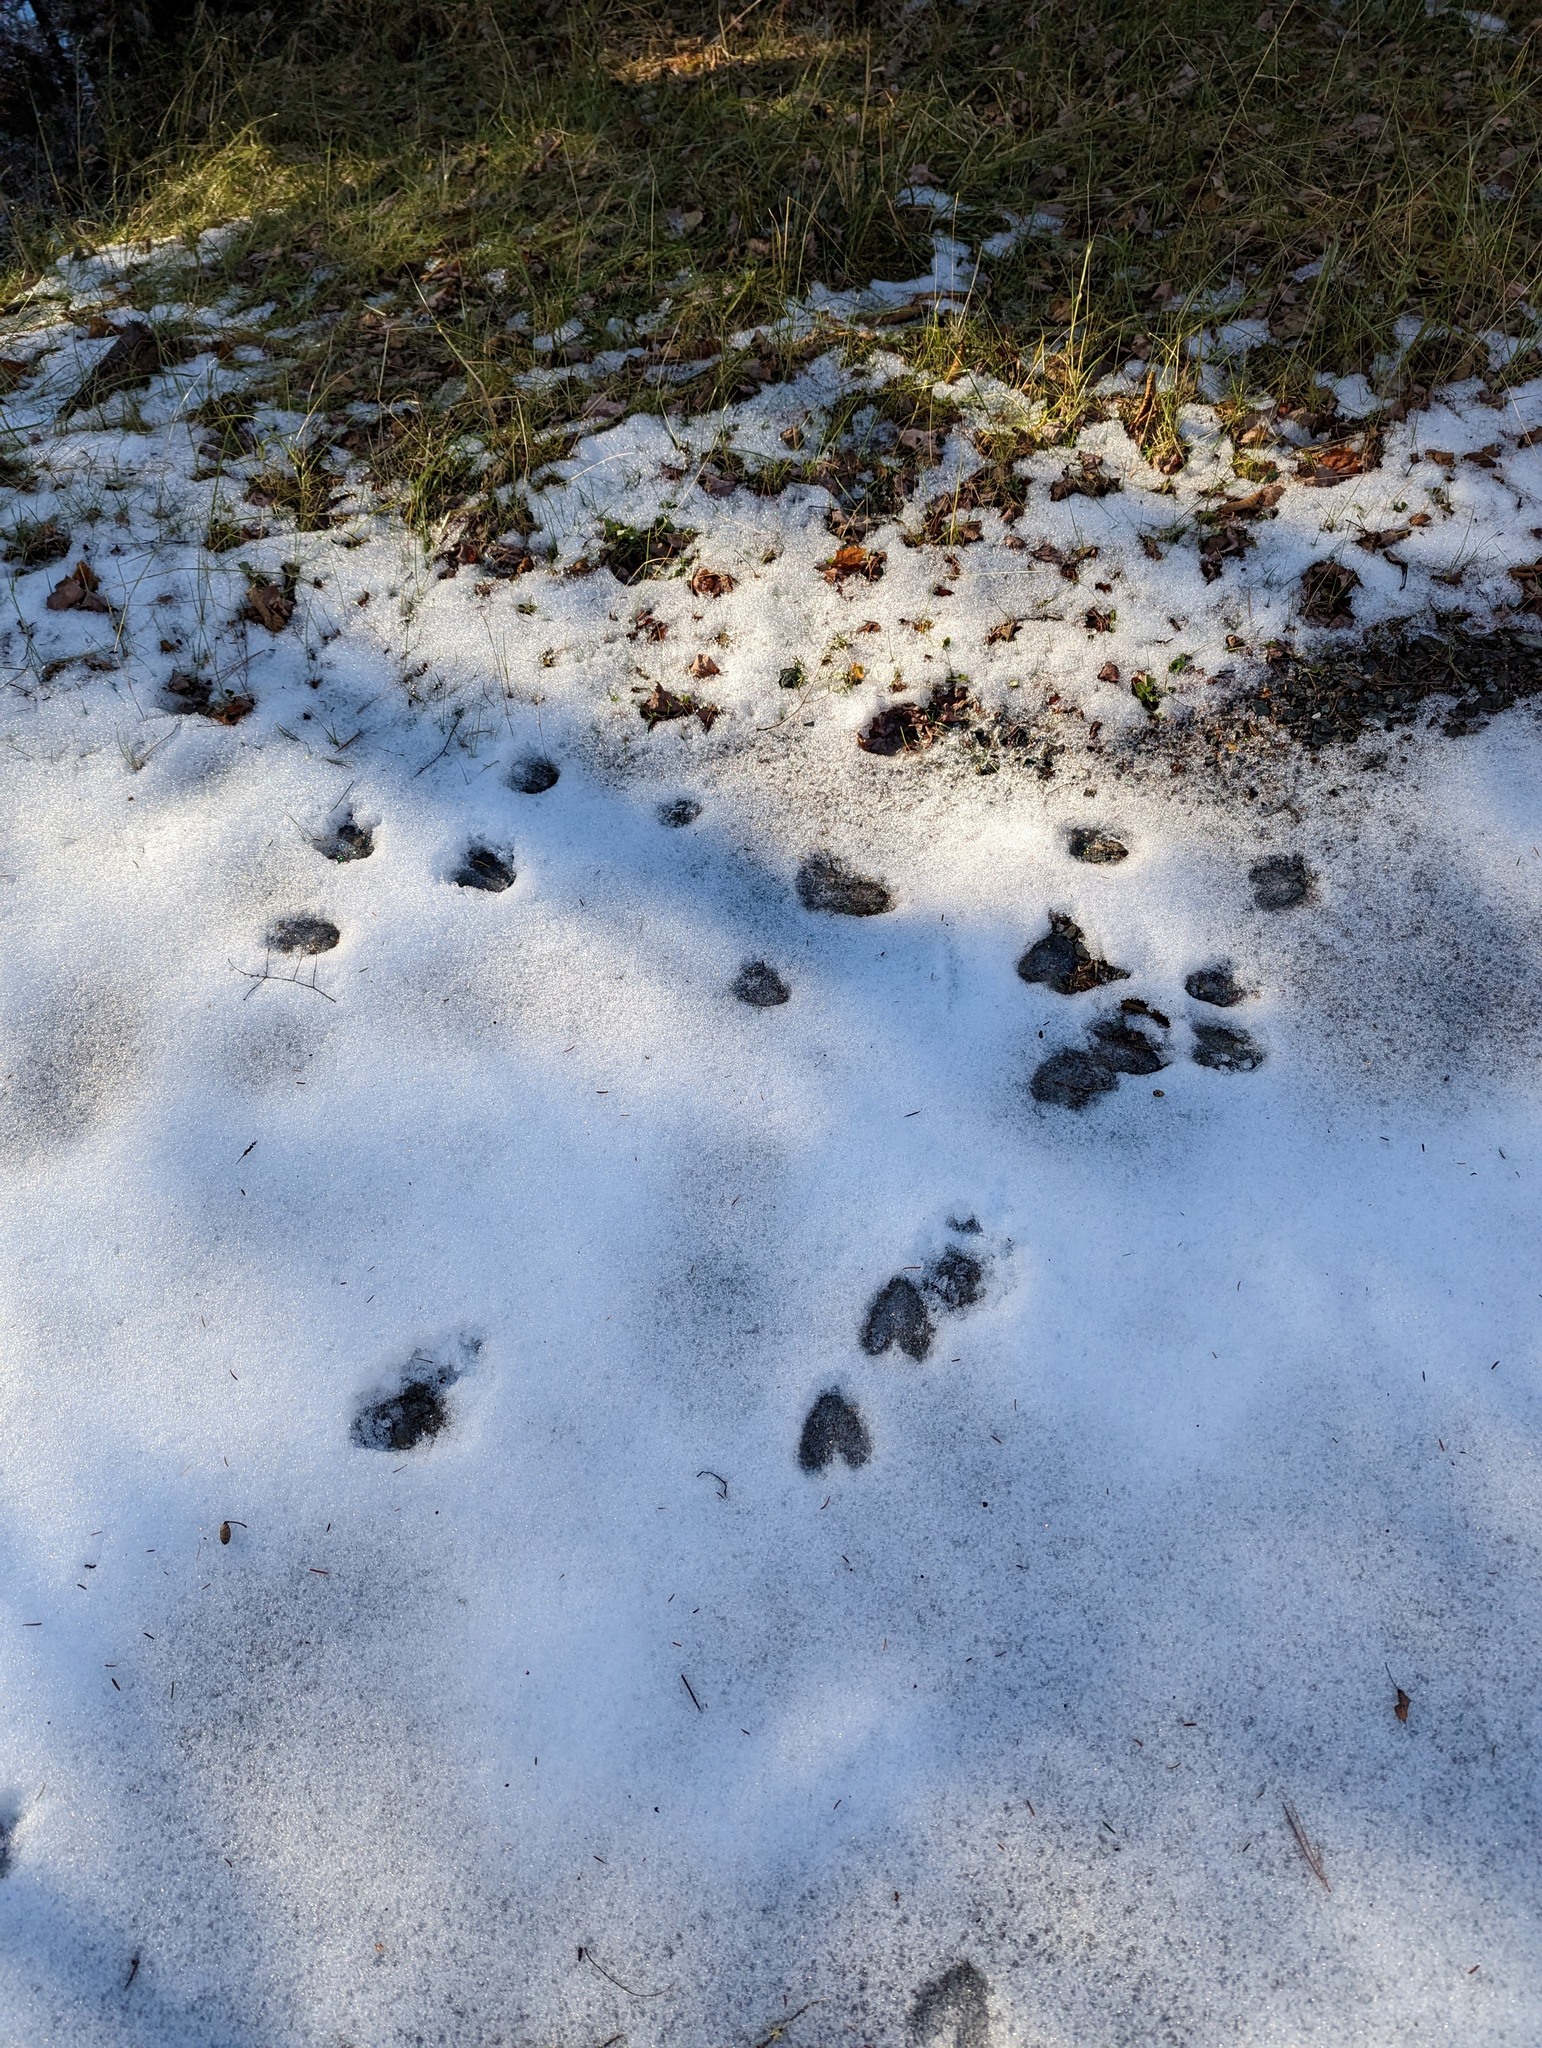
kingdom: Animalia
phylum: Chordata
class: Mammalia
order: Artiodactyla
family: Cervidae
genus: Odocoileus
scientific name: Odocoileus virginianus
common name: White-tailed deer
